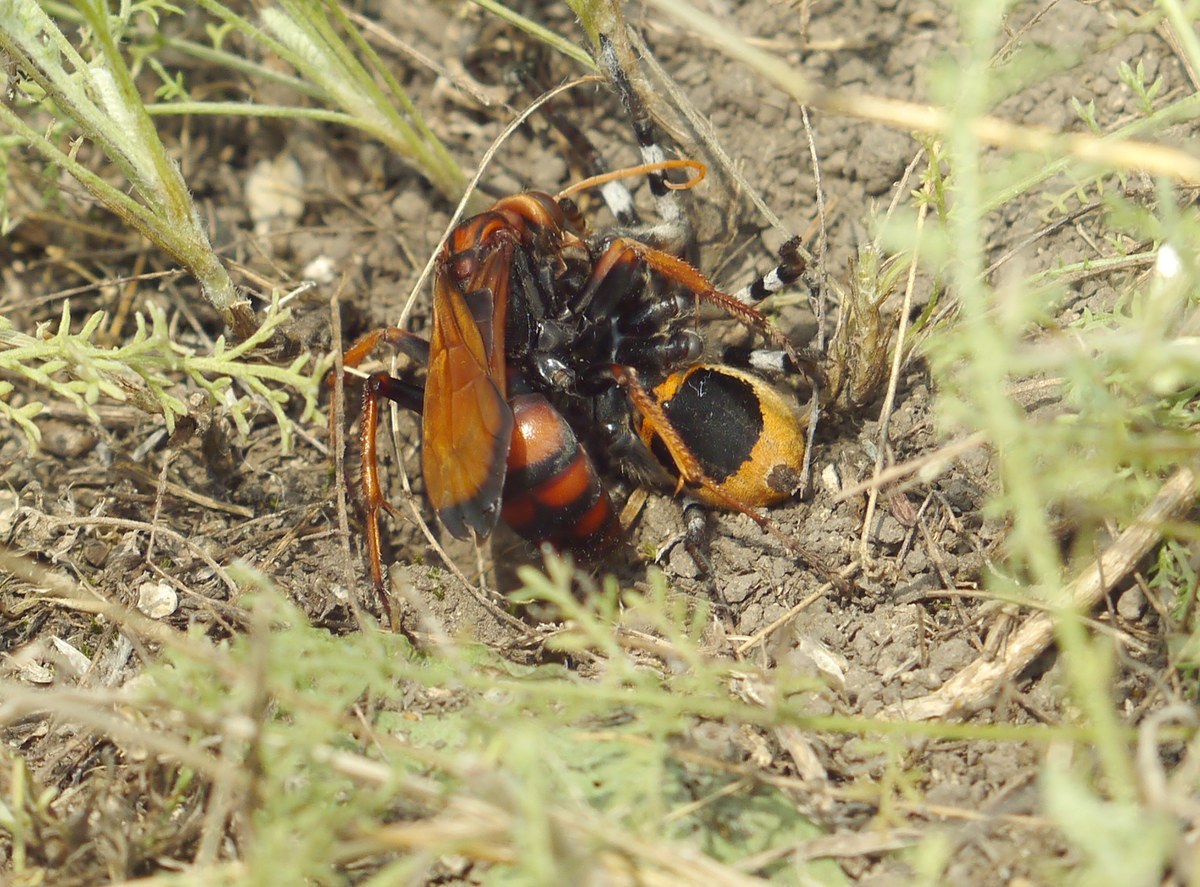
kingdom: Animalia
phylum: Arthropoda
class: Insecta
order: Hymenoptera
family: Pompilidae
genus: Cryptocheilus
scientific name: Cryptocheilus rubellus
